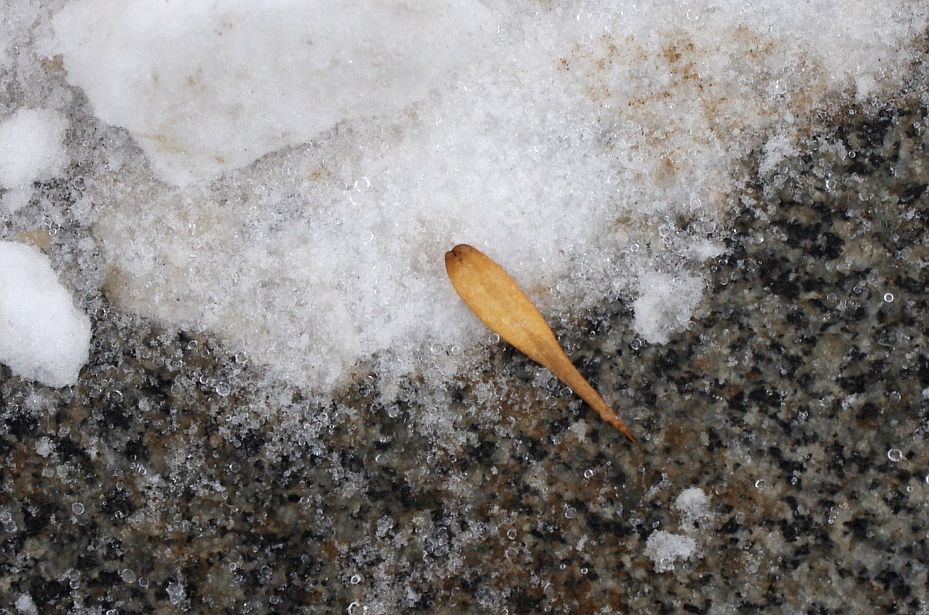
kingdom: Plantae
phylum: Tracheophyta
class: Magnoliopsida
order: Lamiales
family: Oleaceae
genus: Fraxinus
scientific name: Fraxinus pennsylvanica
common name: Green ash
